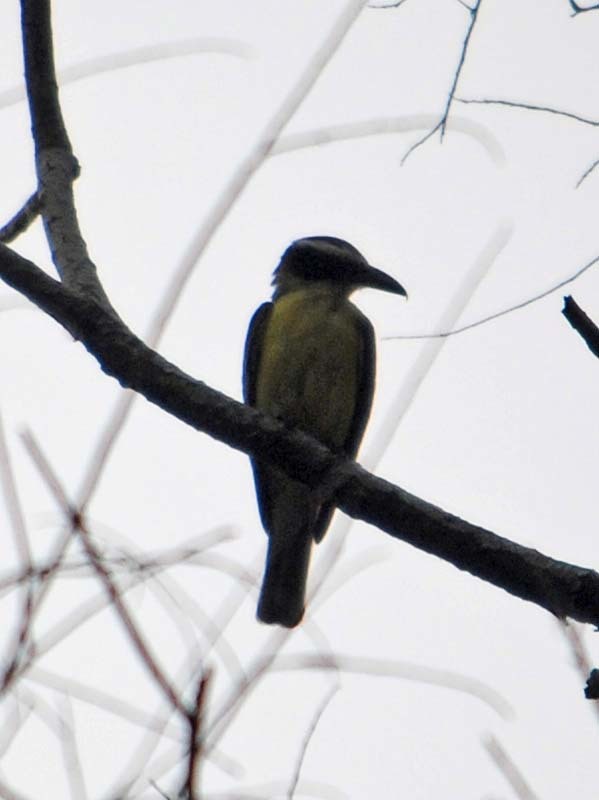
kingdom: Animalia
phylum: Chordata
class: Aves
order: Passeriformes
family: Tyrannidae
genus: Megarynchus
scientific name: Megarynchus pitangua
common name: Boat-billed flycatcher
